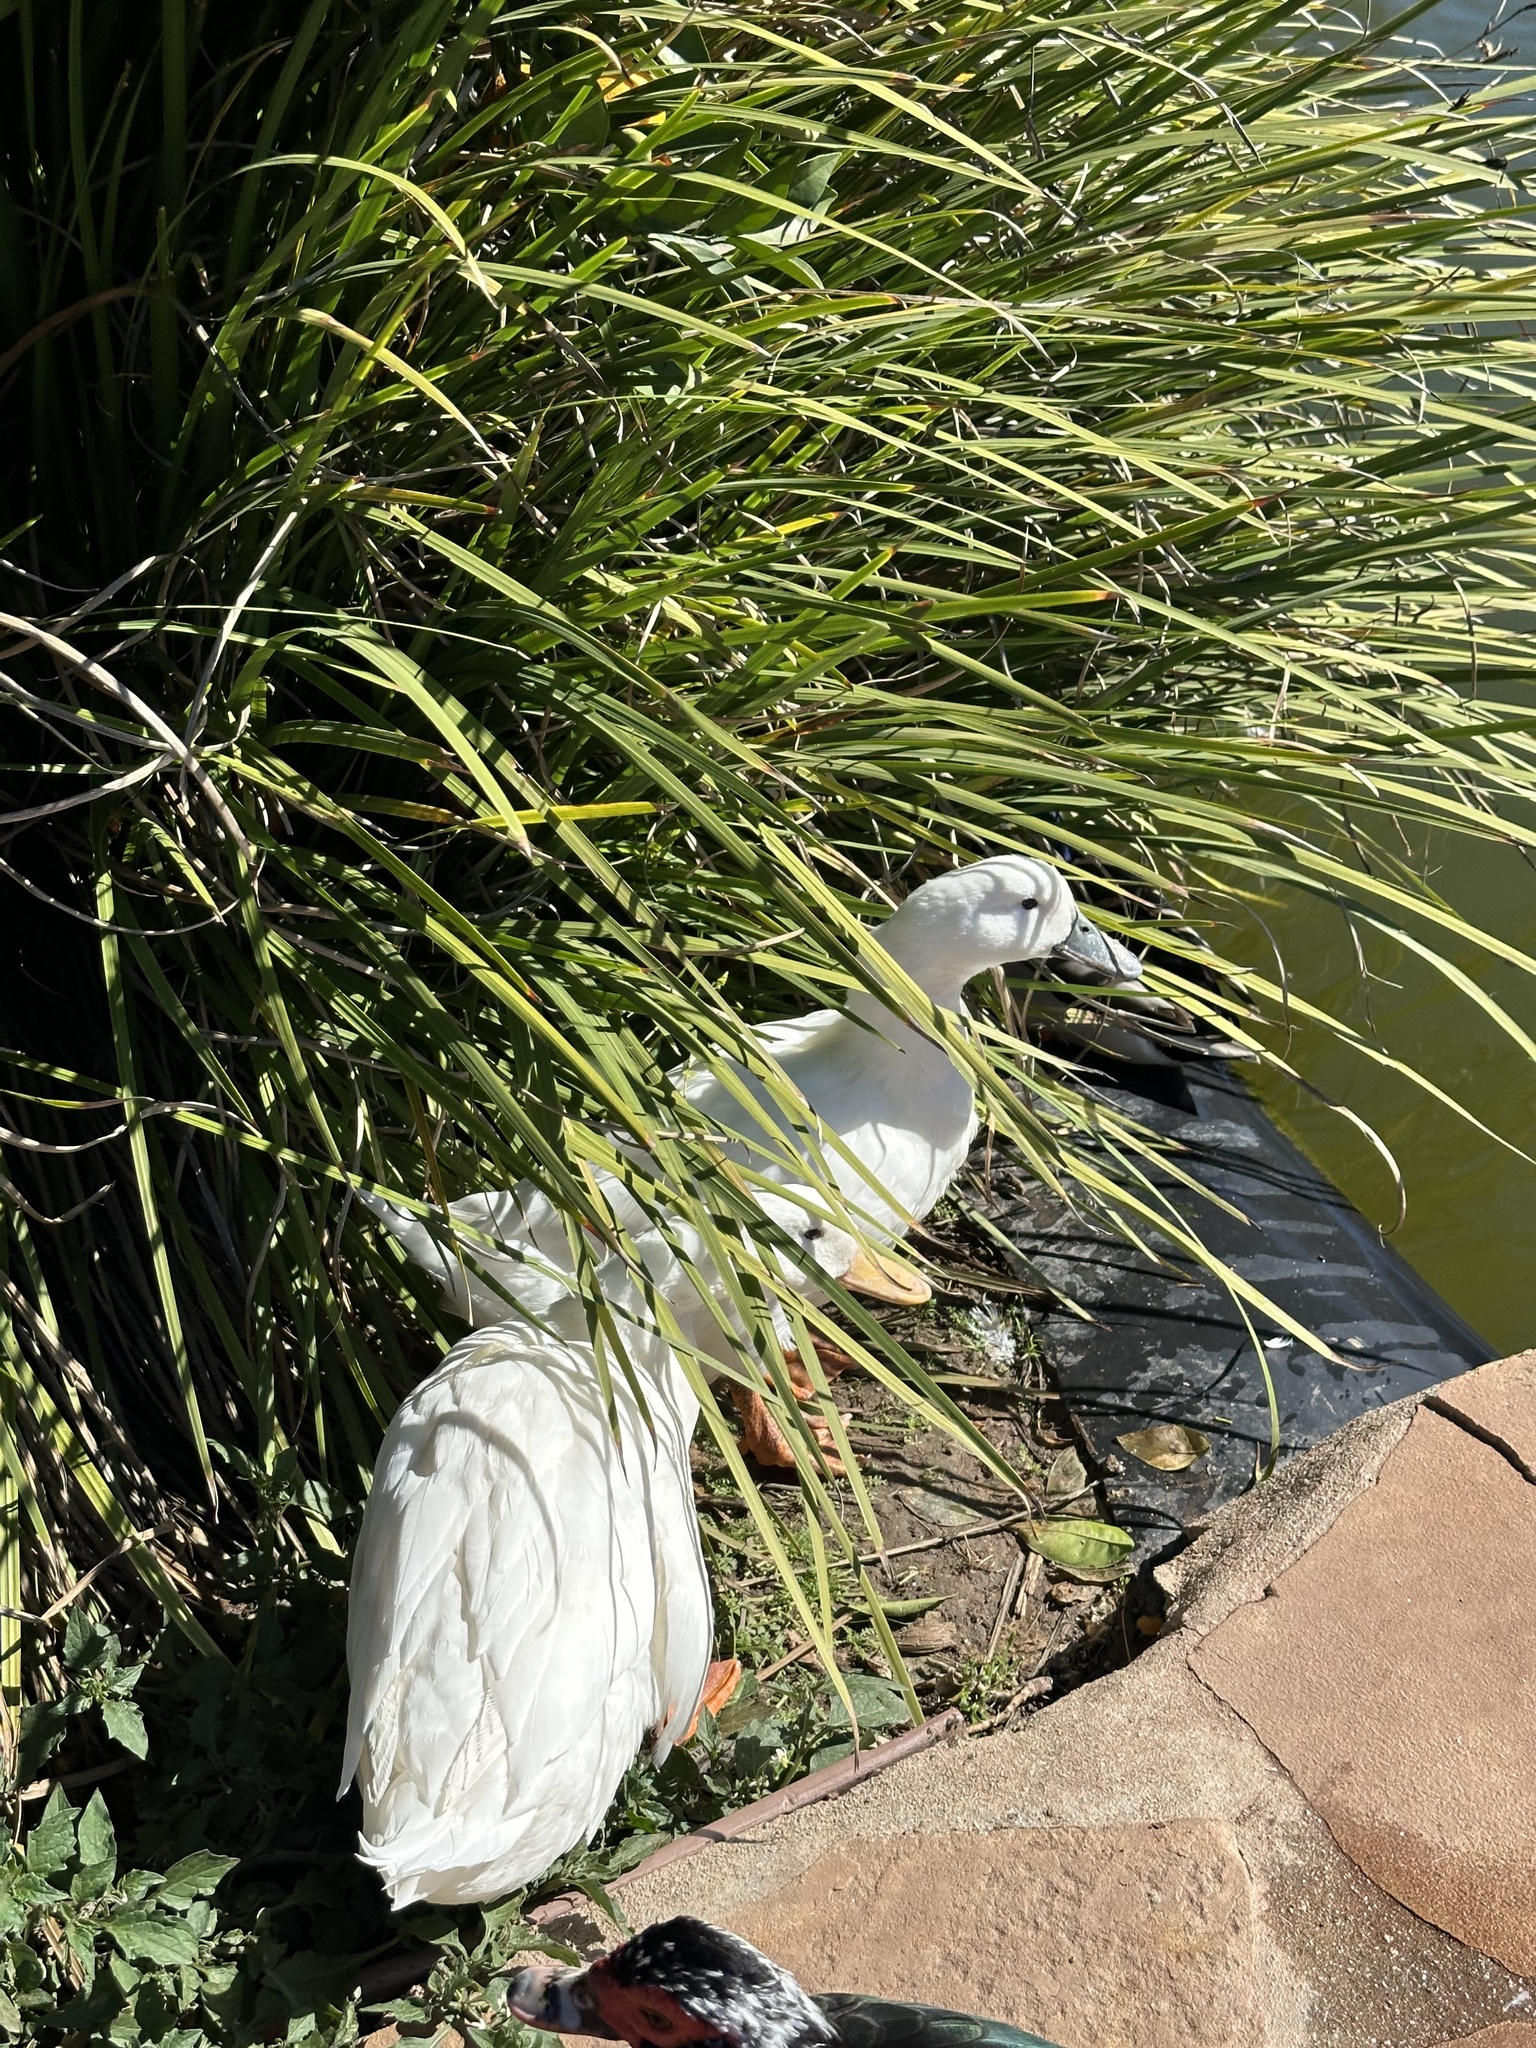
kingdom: Animalia
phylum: Chordata
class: Aves
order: Anseriformes
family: Anatidae
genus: Anas
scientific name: Anas platyrhynchos
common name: Mallard
